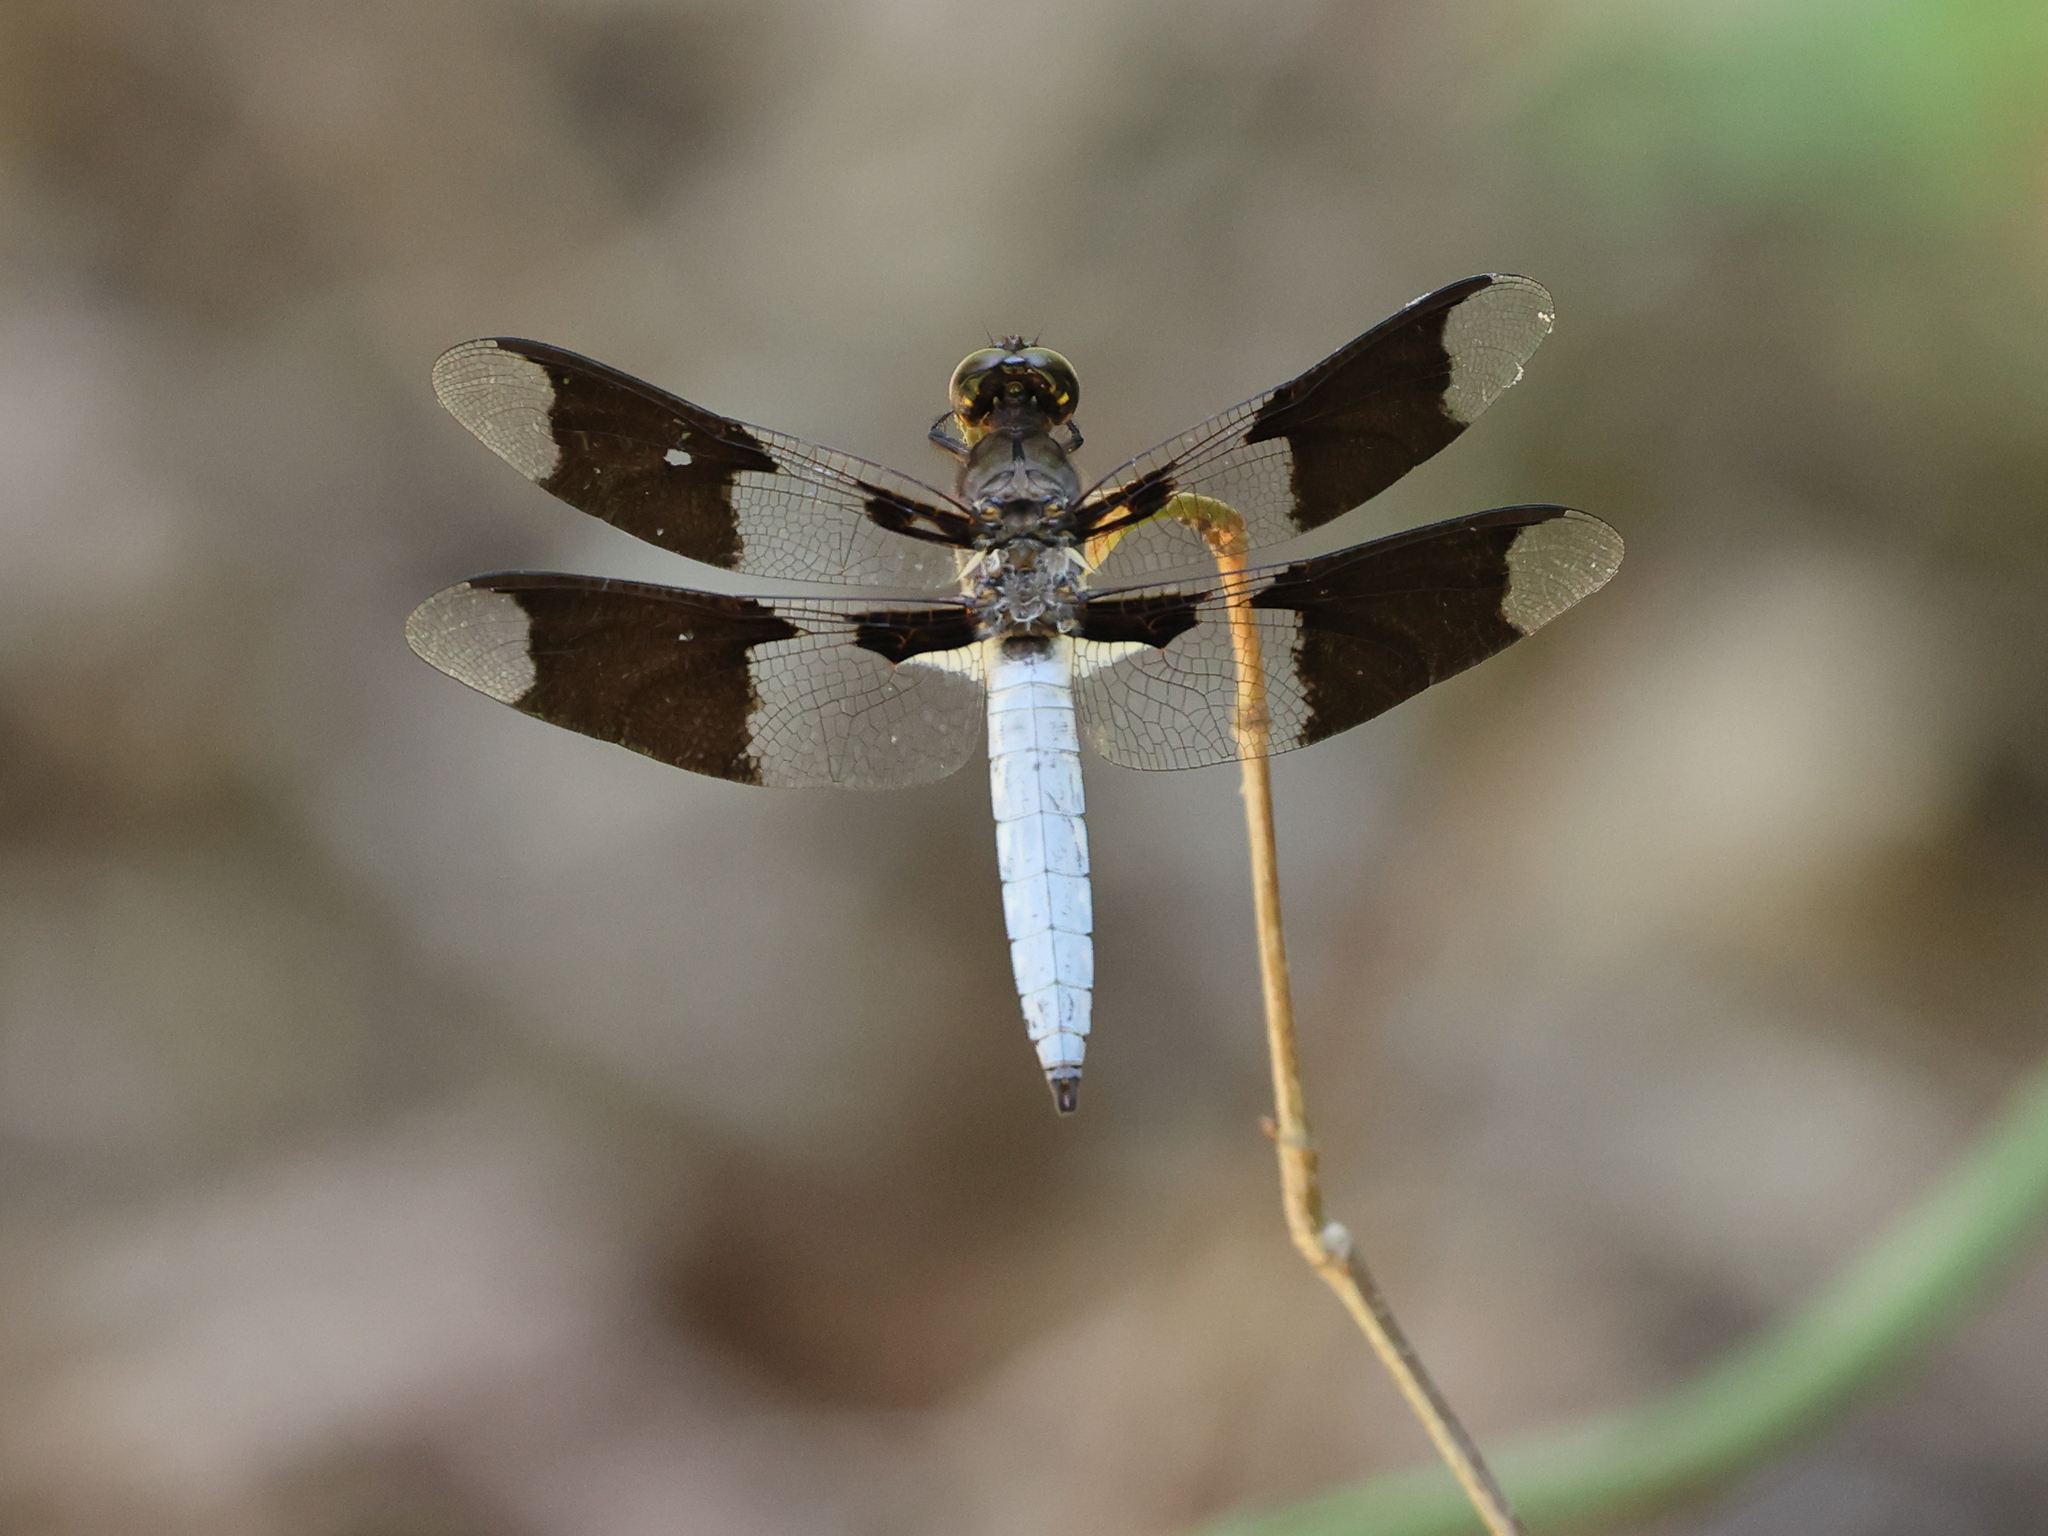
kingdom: Animalia
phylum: Arthropoda
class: Insecta
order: Odonata
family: Libellulidae
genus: Plathemis
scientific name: Plathemis lydia
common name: Common whitetail
